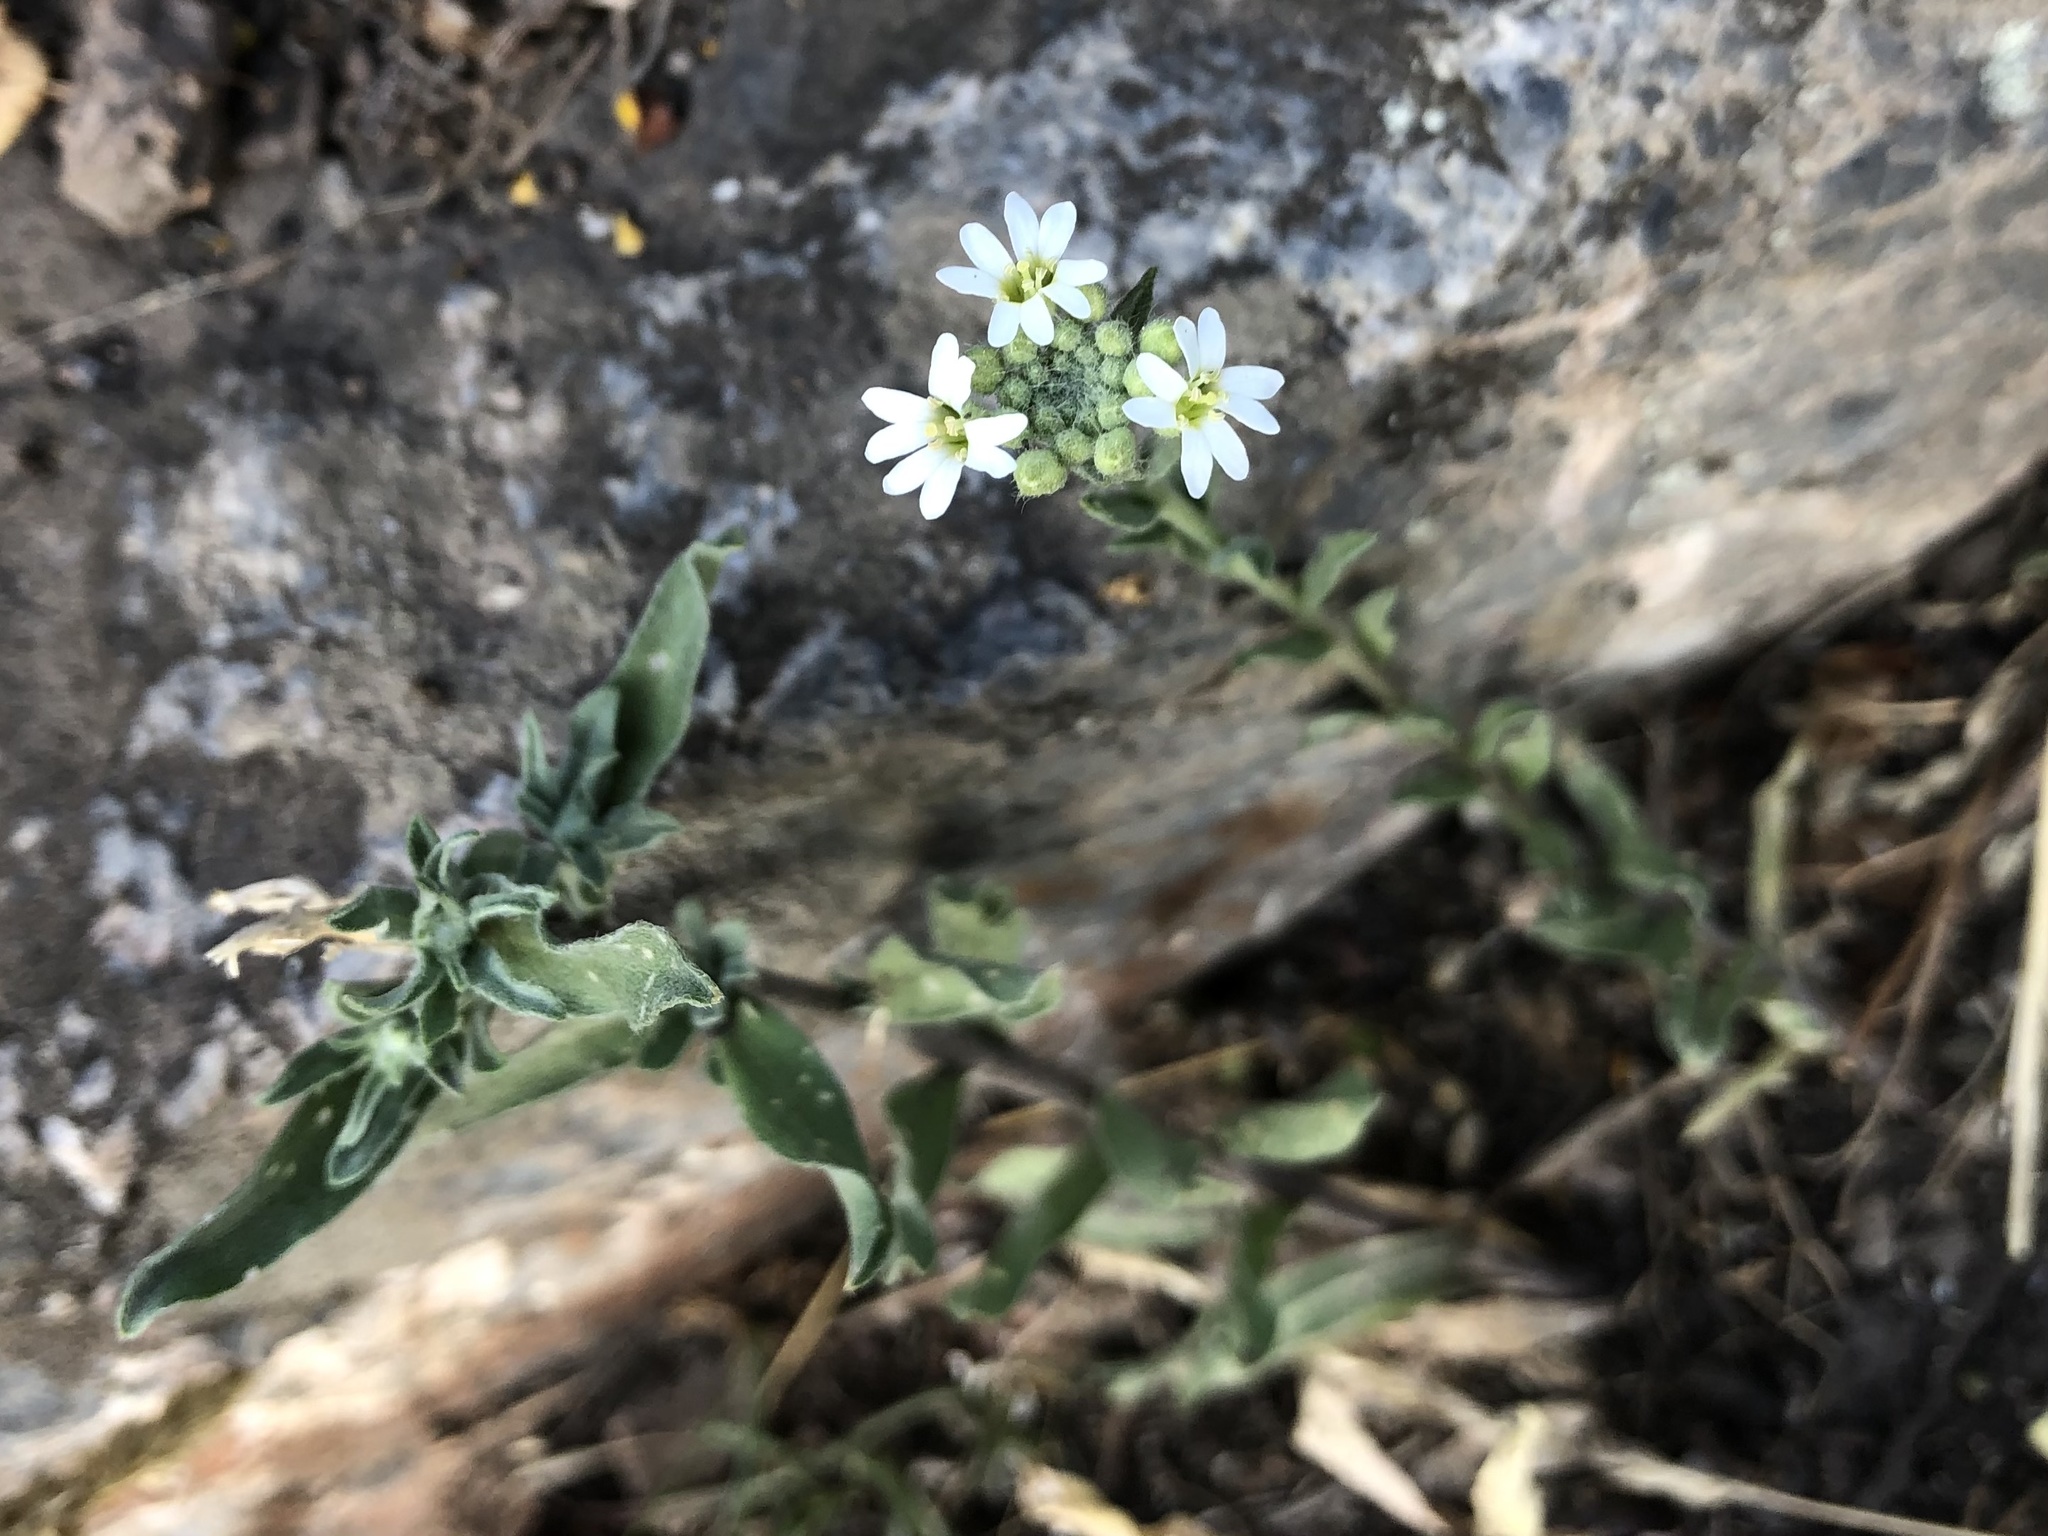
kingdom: Plantae
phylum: Tracheophyta
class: Magnoliopsida
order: Brassicales
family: Brassicaceae
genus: Berteroa
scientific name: Berteroa incana
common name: Hoary alison
